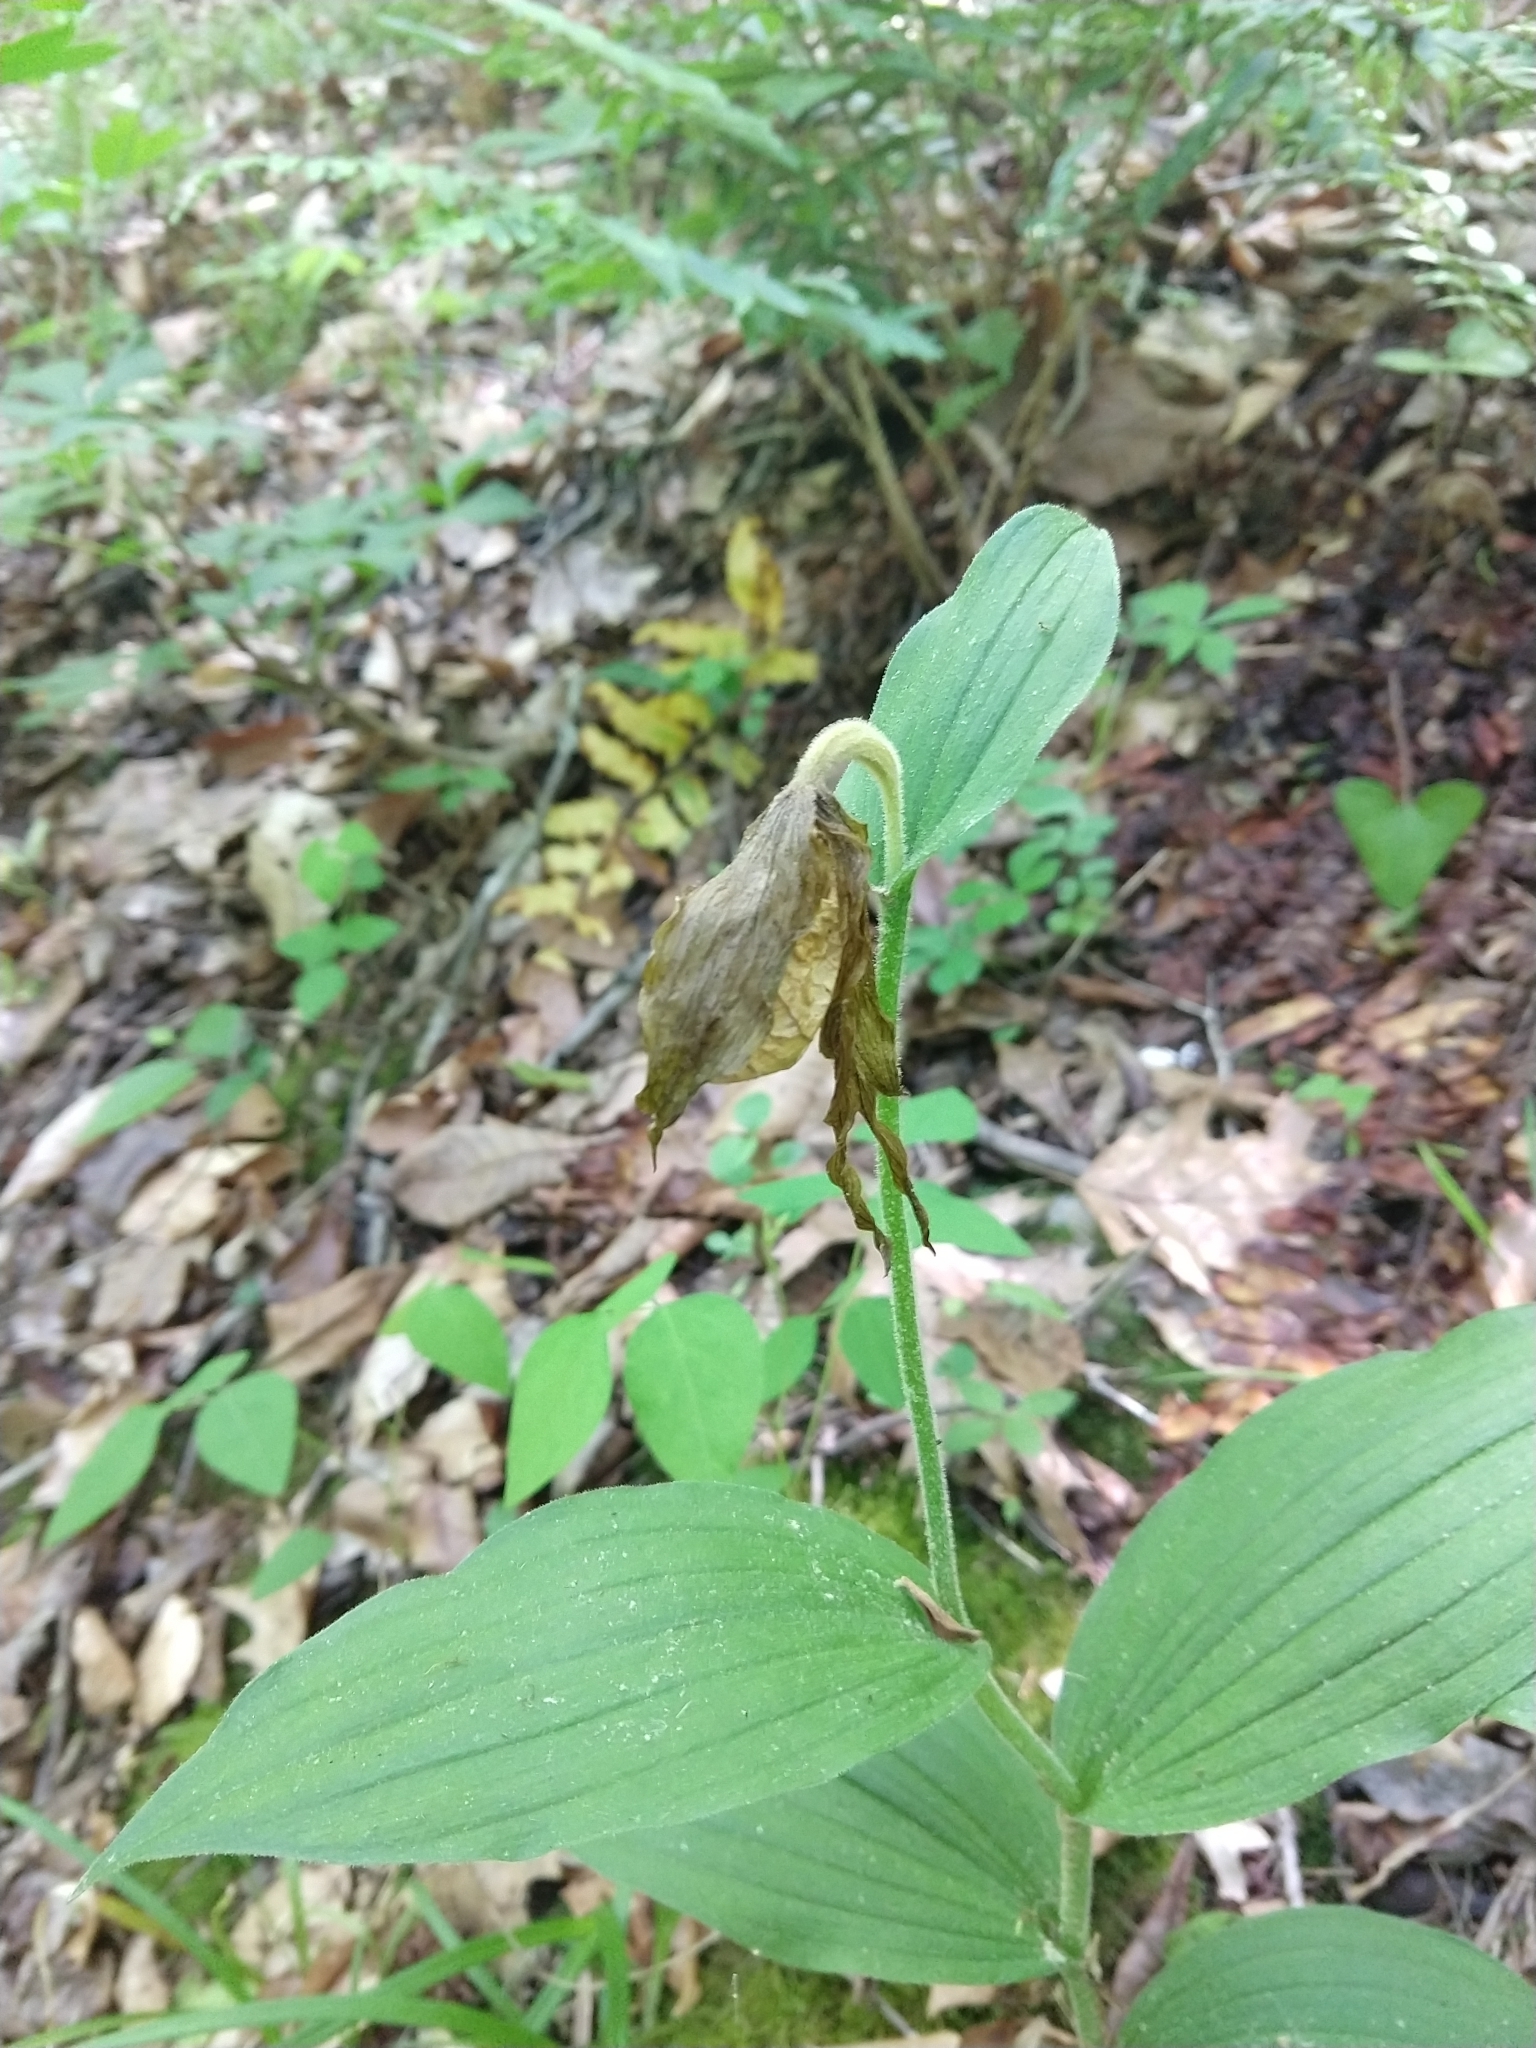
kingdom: Plantae
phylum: Tracheophyta
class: Liliopsida
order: Asparagales
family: Orchidaceae
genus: Cypripedium
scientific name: Cypripedium parviflorum
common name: American yellow lady's-slipper
